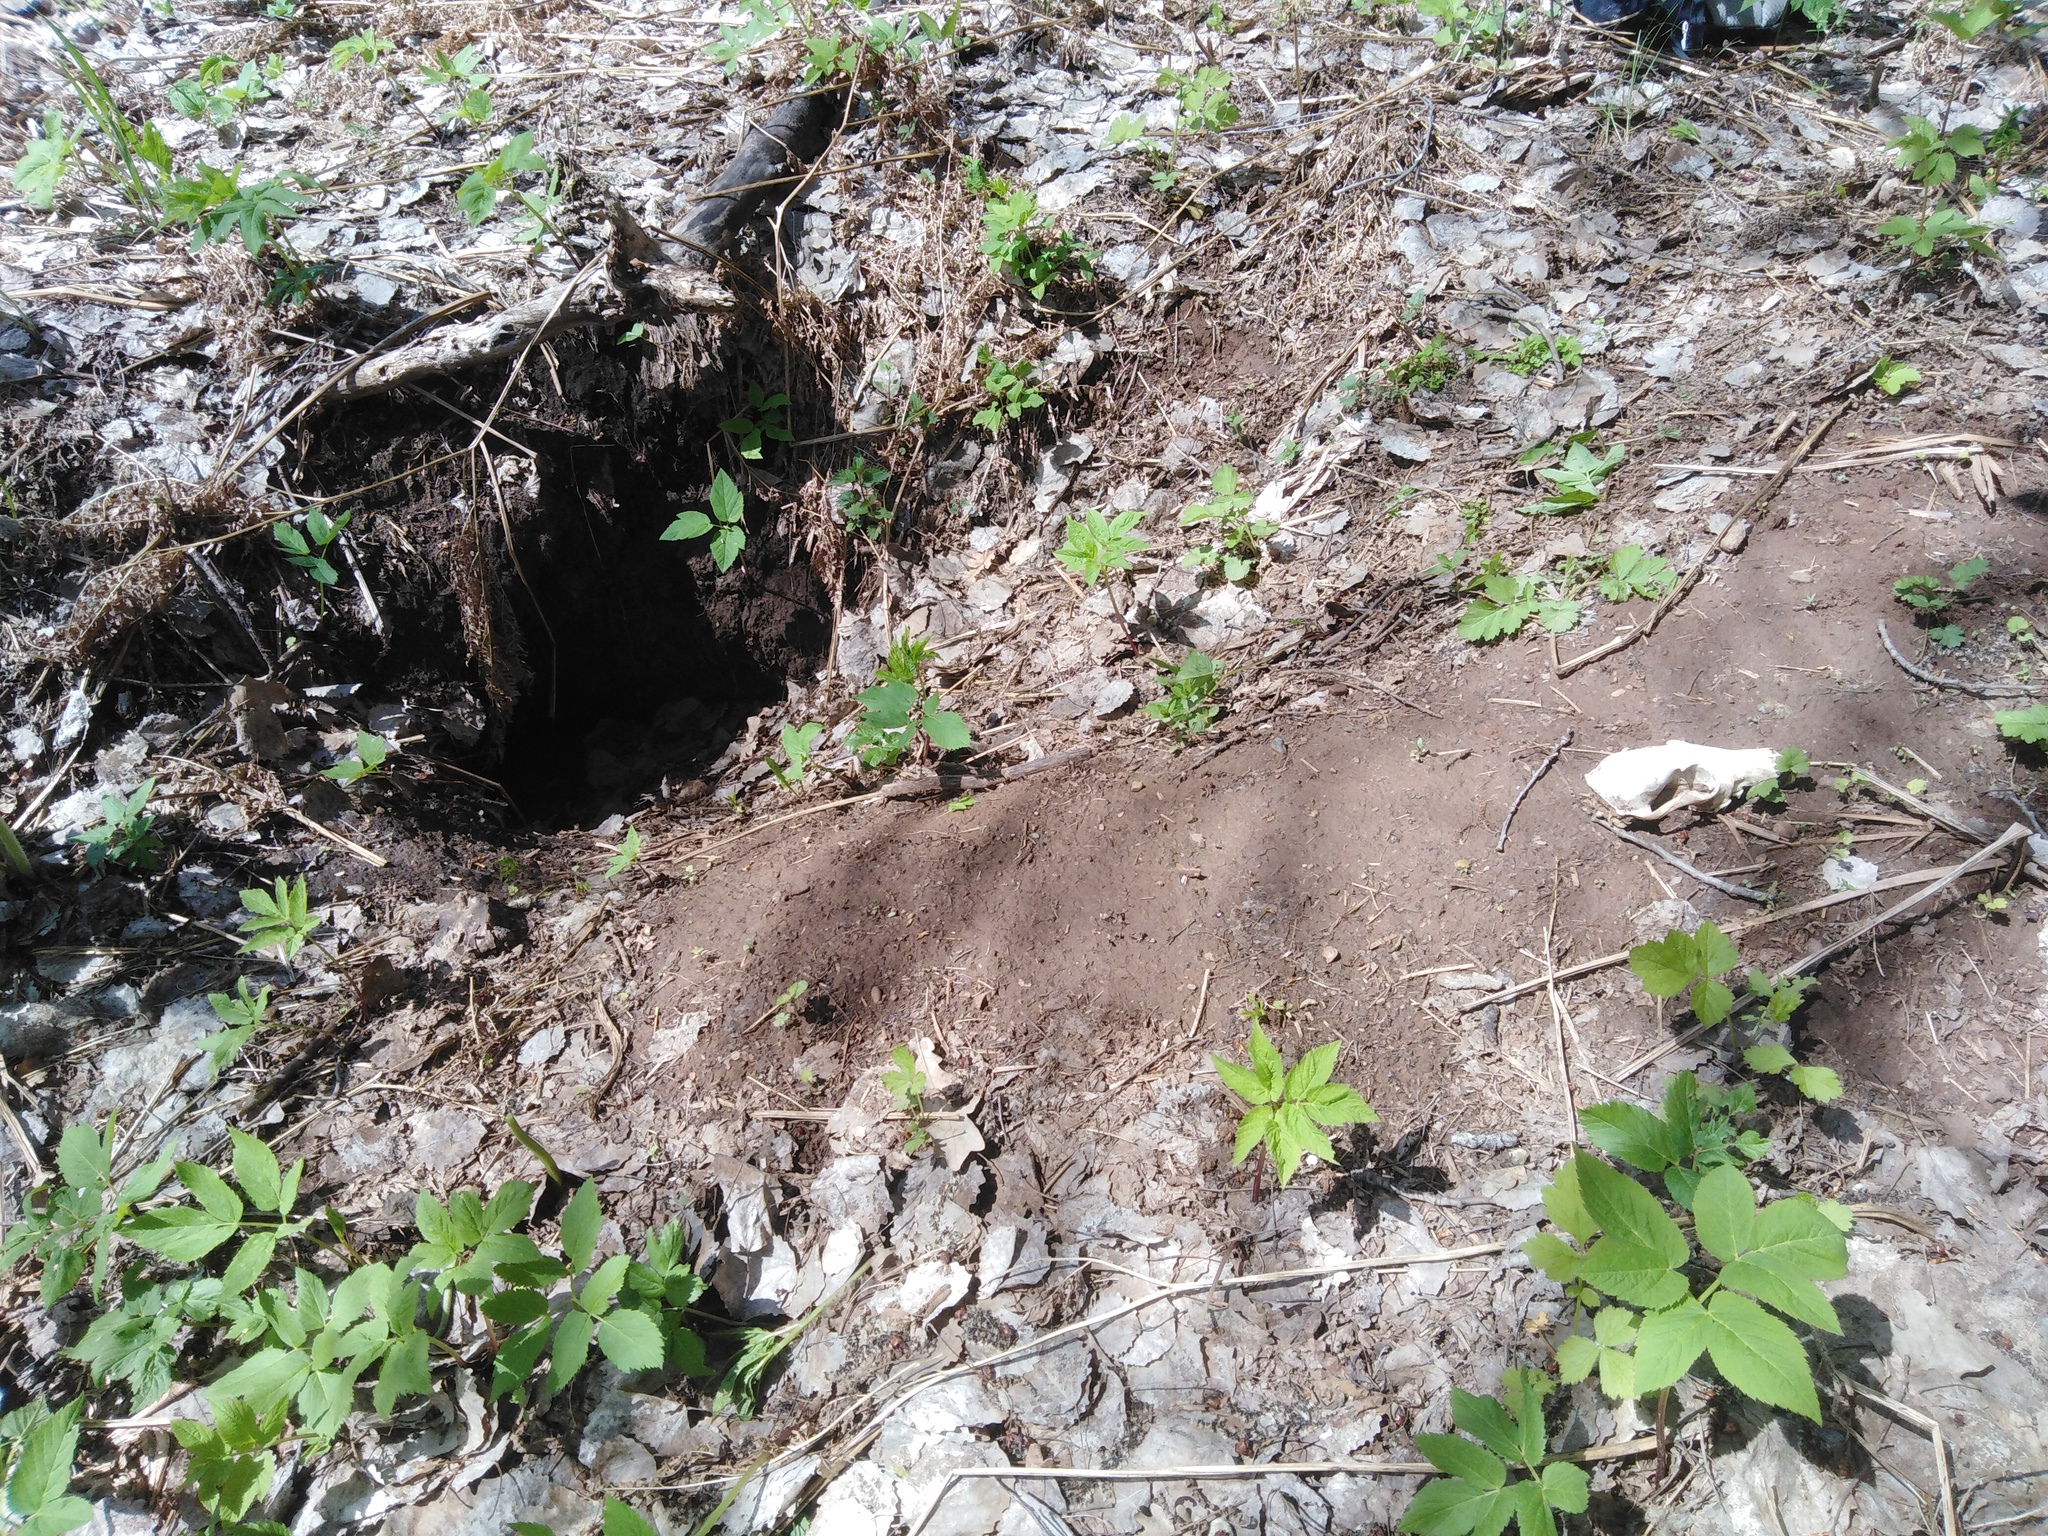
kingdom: Animalia
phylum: Chordata
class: Mammalia
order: Carnivora
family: Canidae
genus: Vulpes
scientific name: Vulpes vulpes
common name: Red fox
